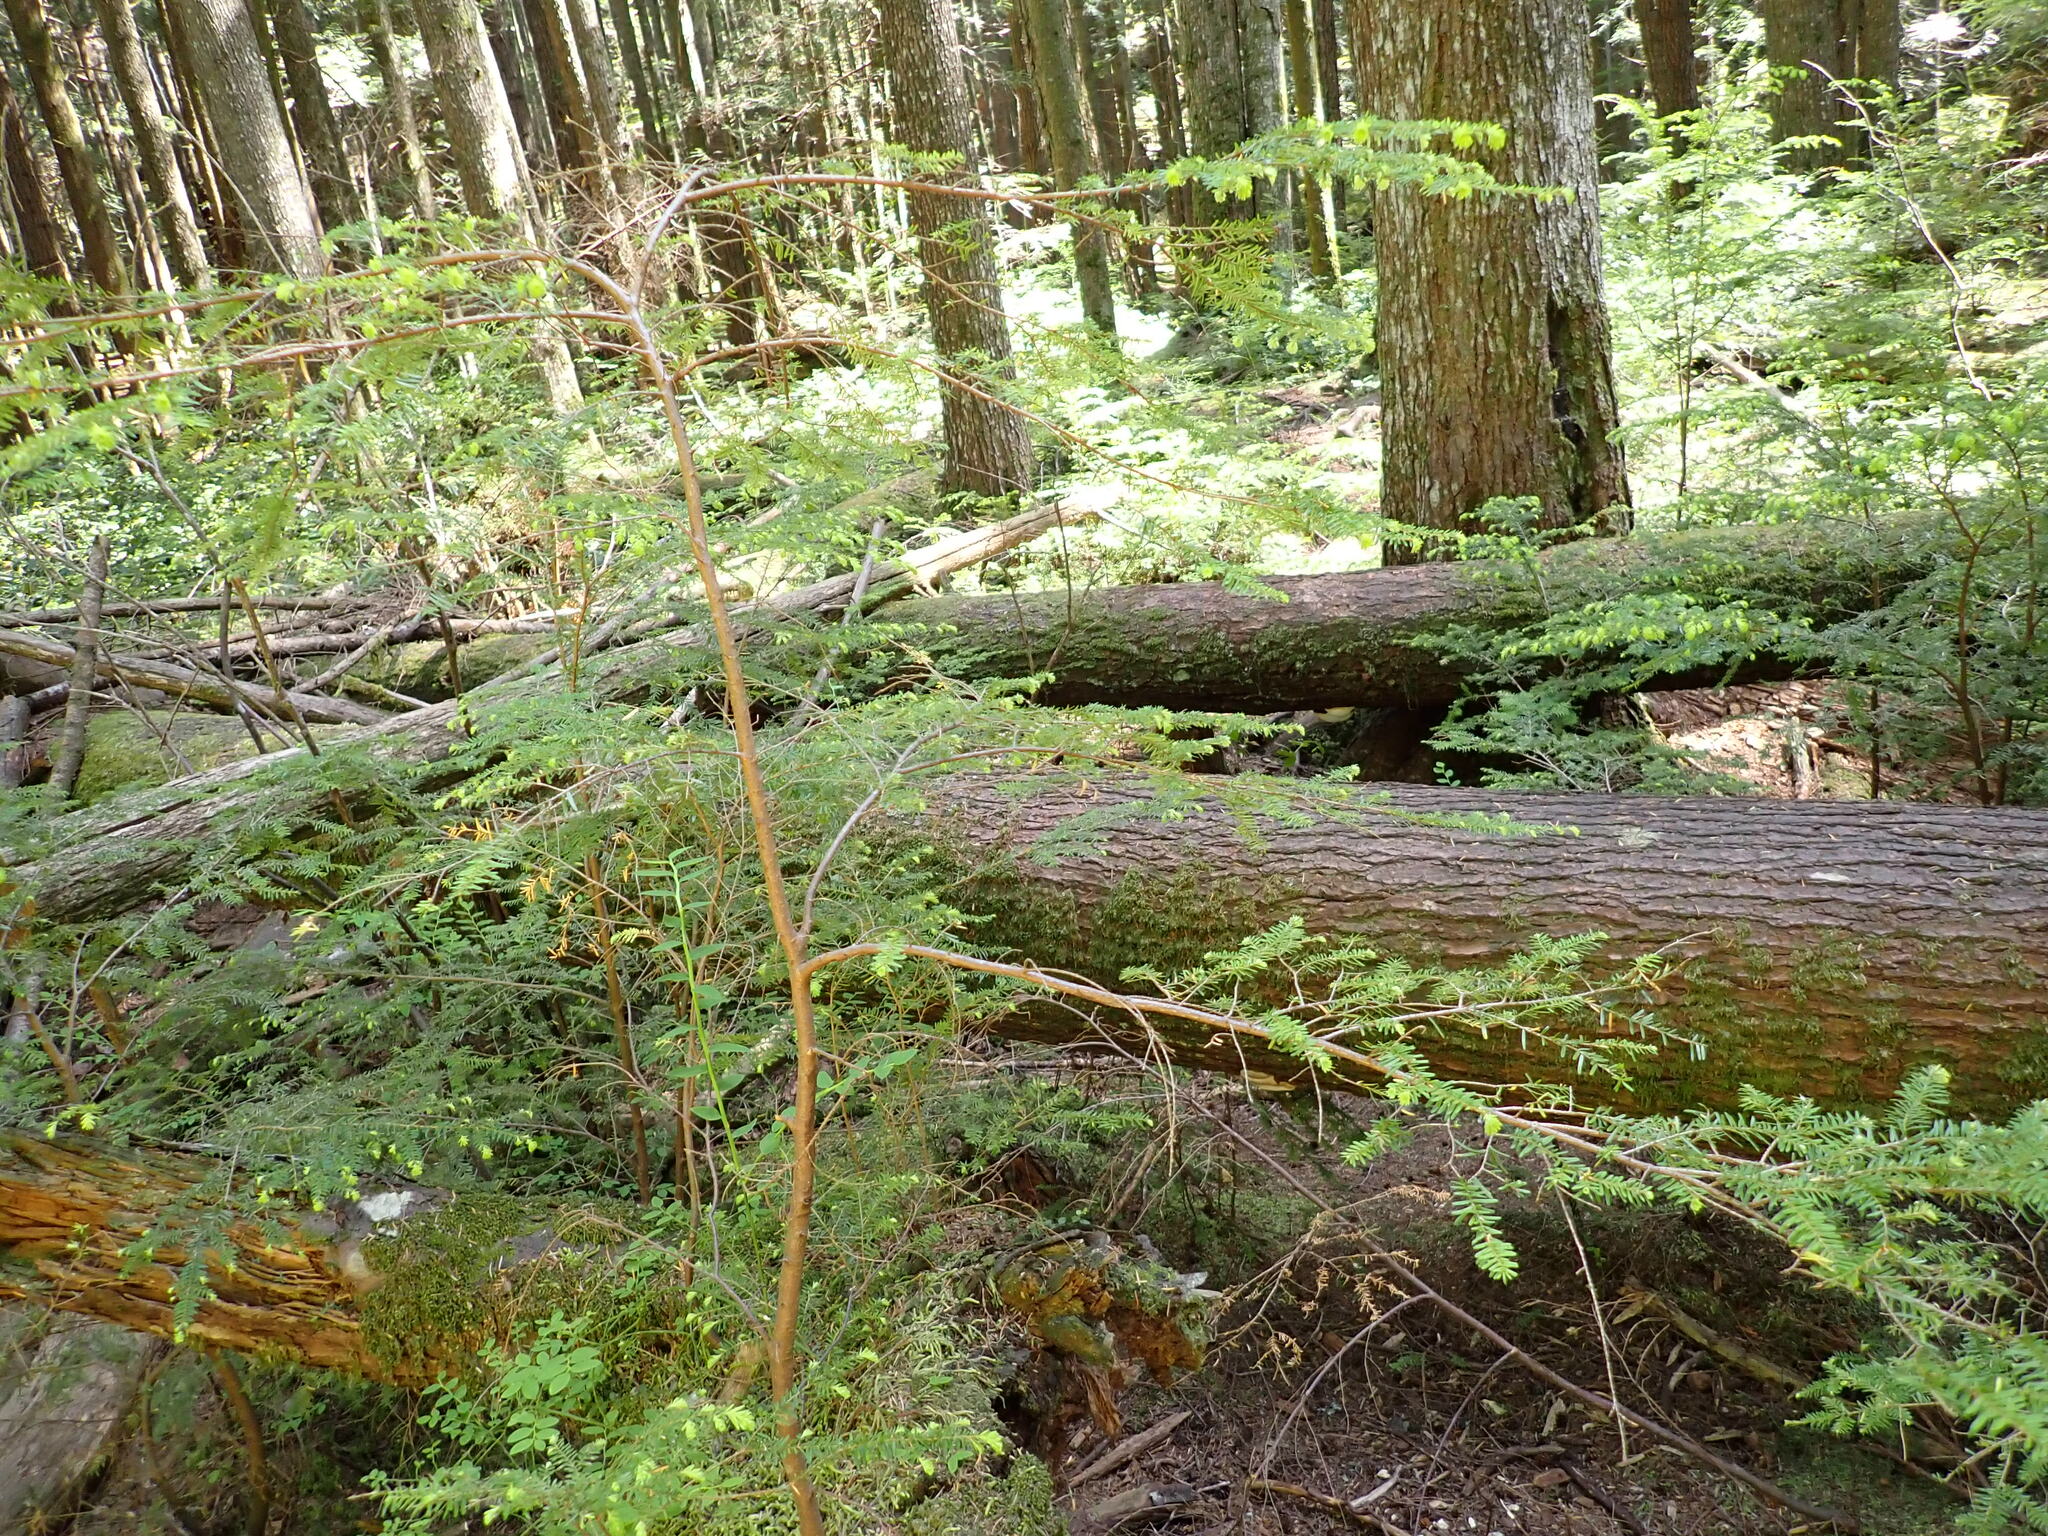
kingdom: Plantae
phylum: Tracheophyta
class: Pinopsida
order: Pinales
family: Pinaceae
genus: Tsuga
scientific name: Tsuga heterophylla
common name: Western hemlock
